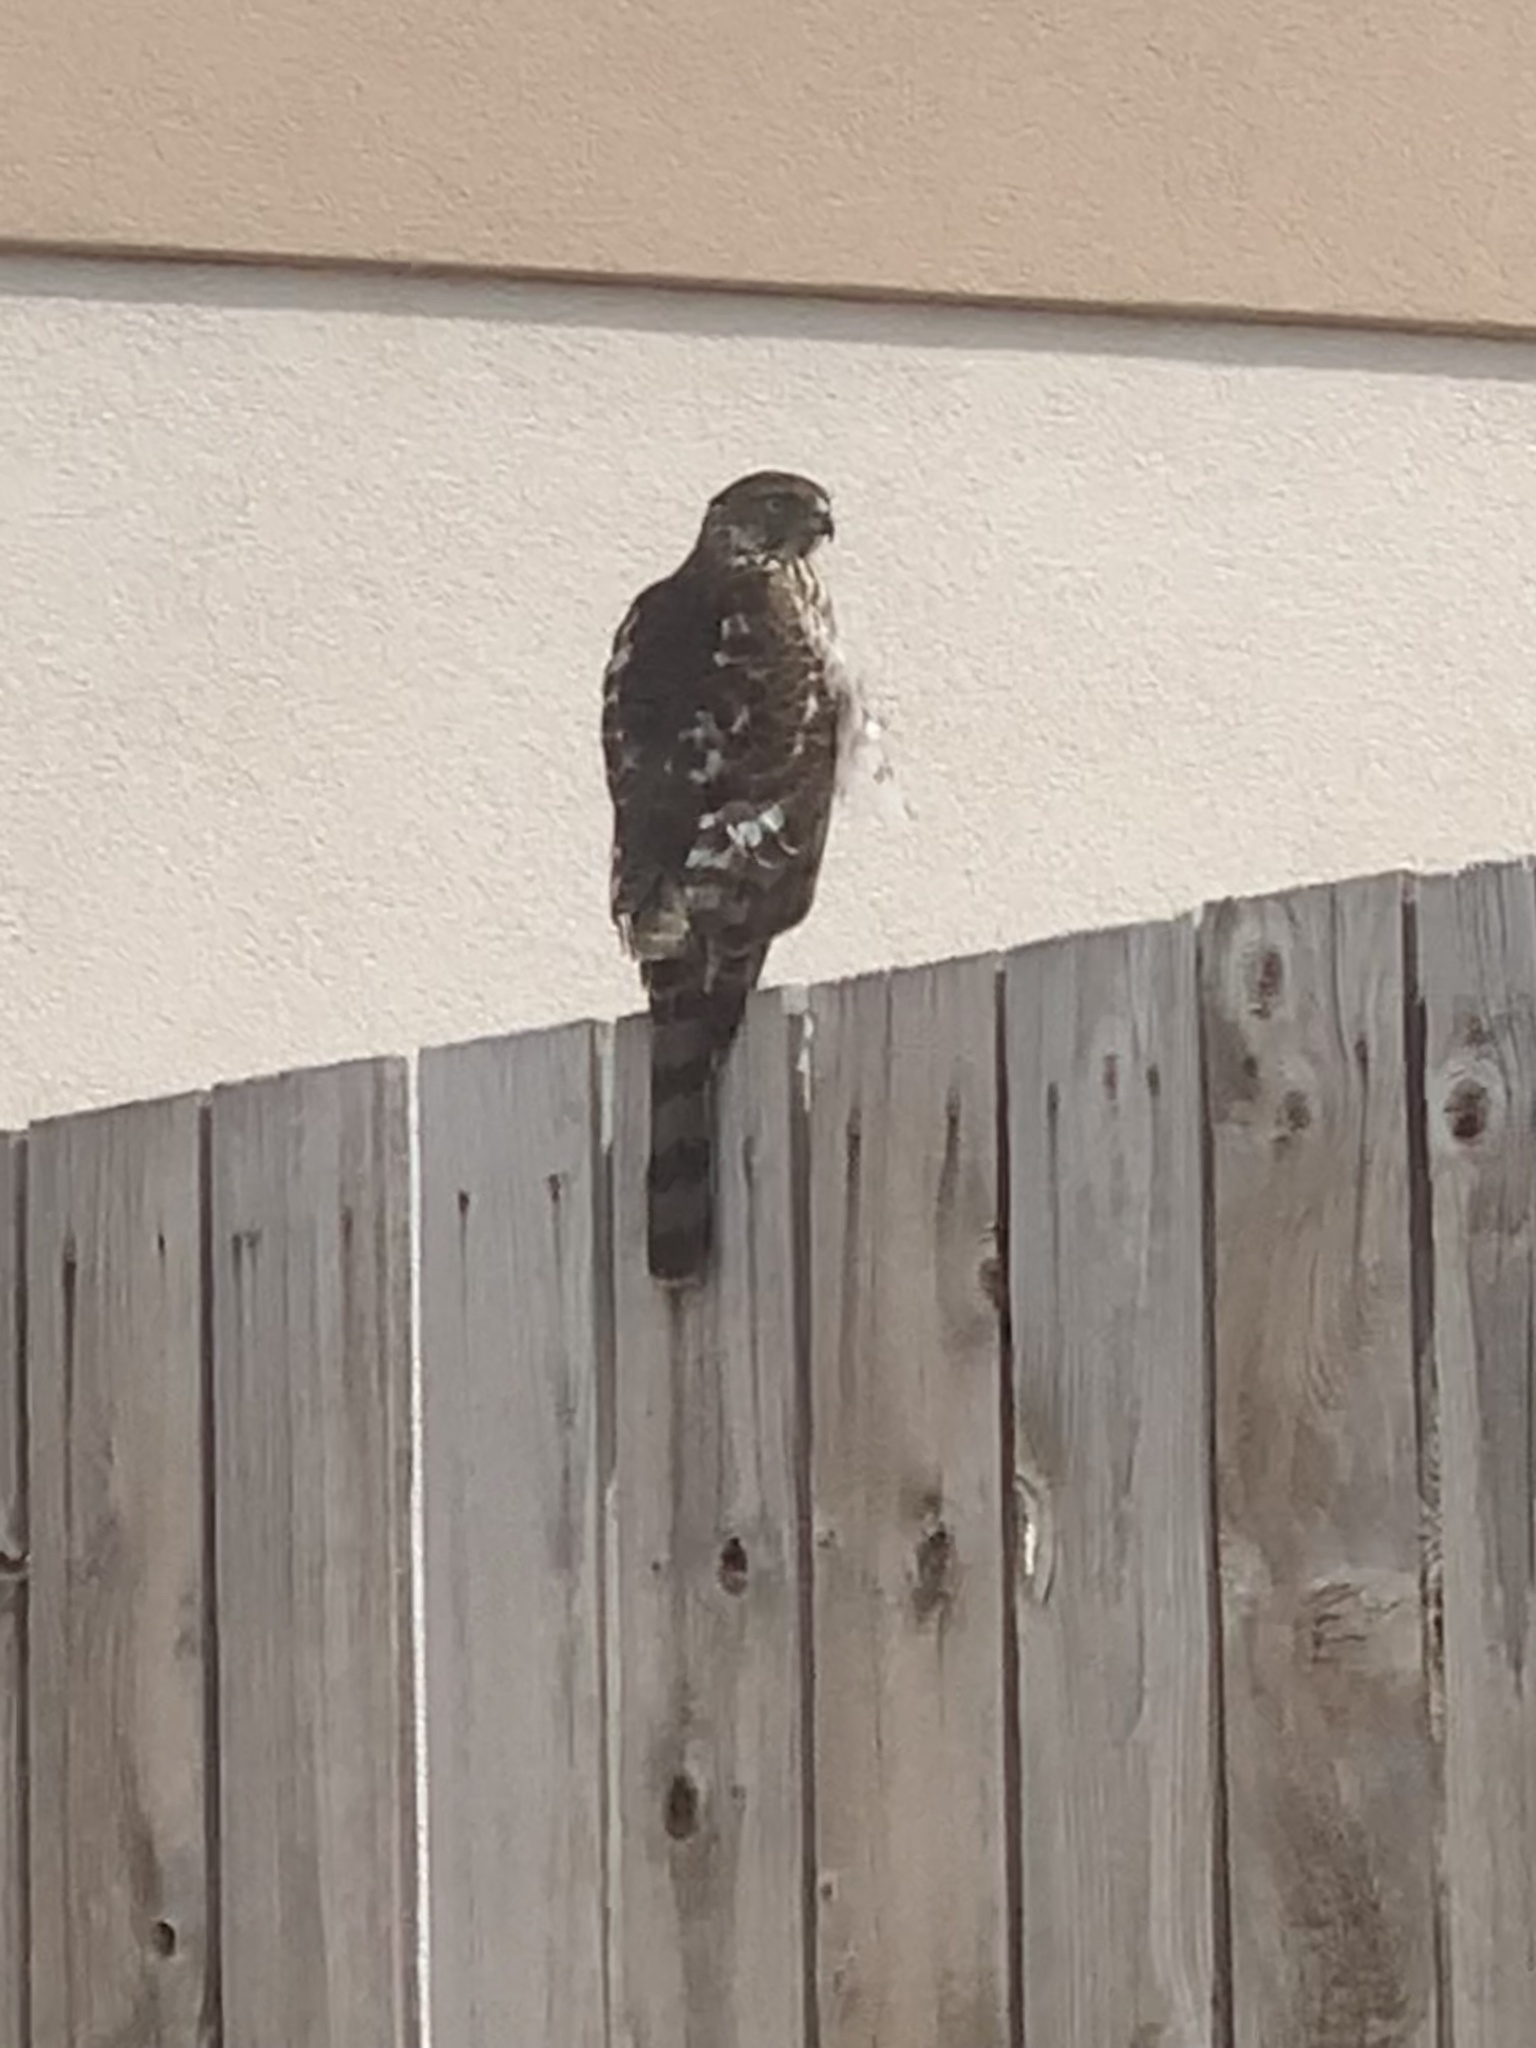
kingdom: Animalia
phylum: Chordata
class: Aves
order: Accipitriformes
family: Accipitridae
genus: Accipiter
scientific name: Accipiter cooperii
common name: Cooper's hawk
